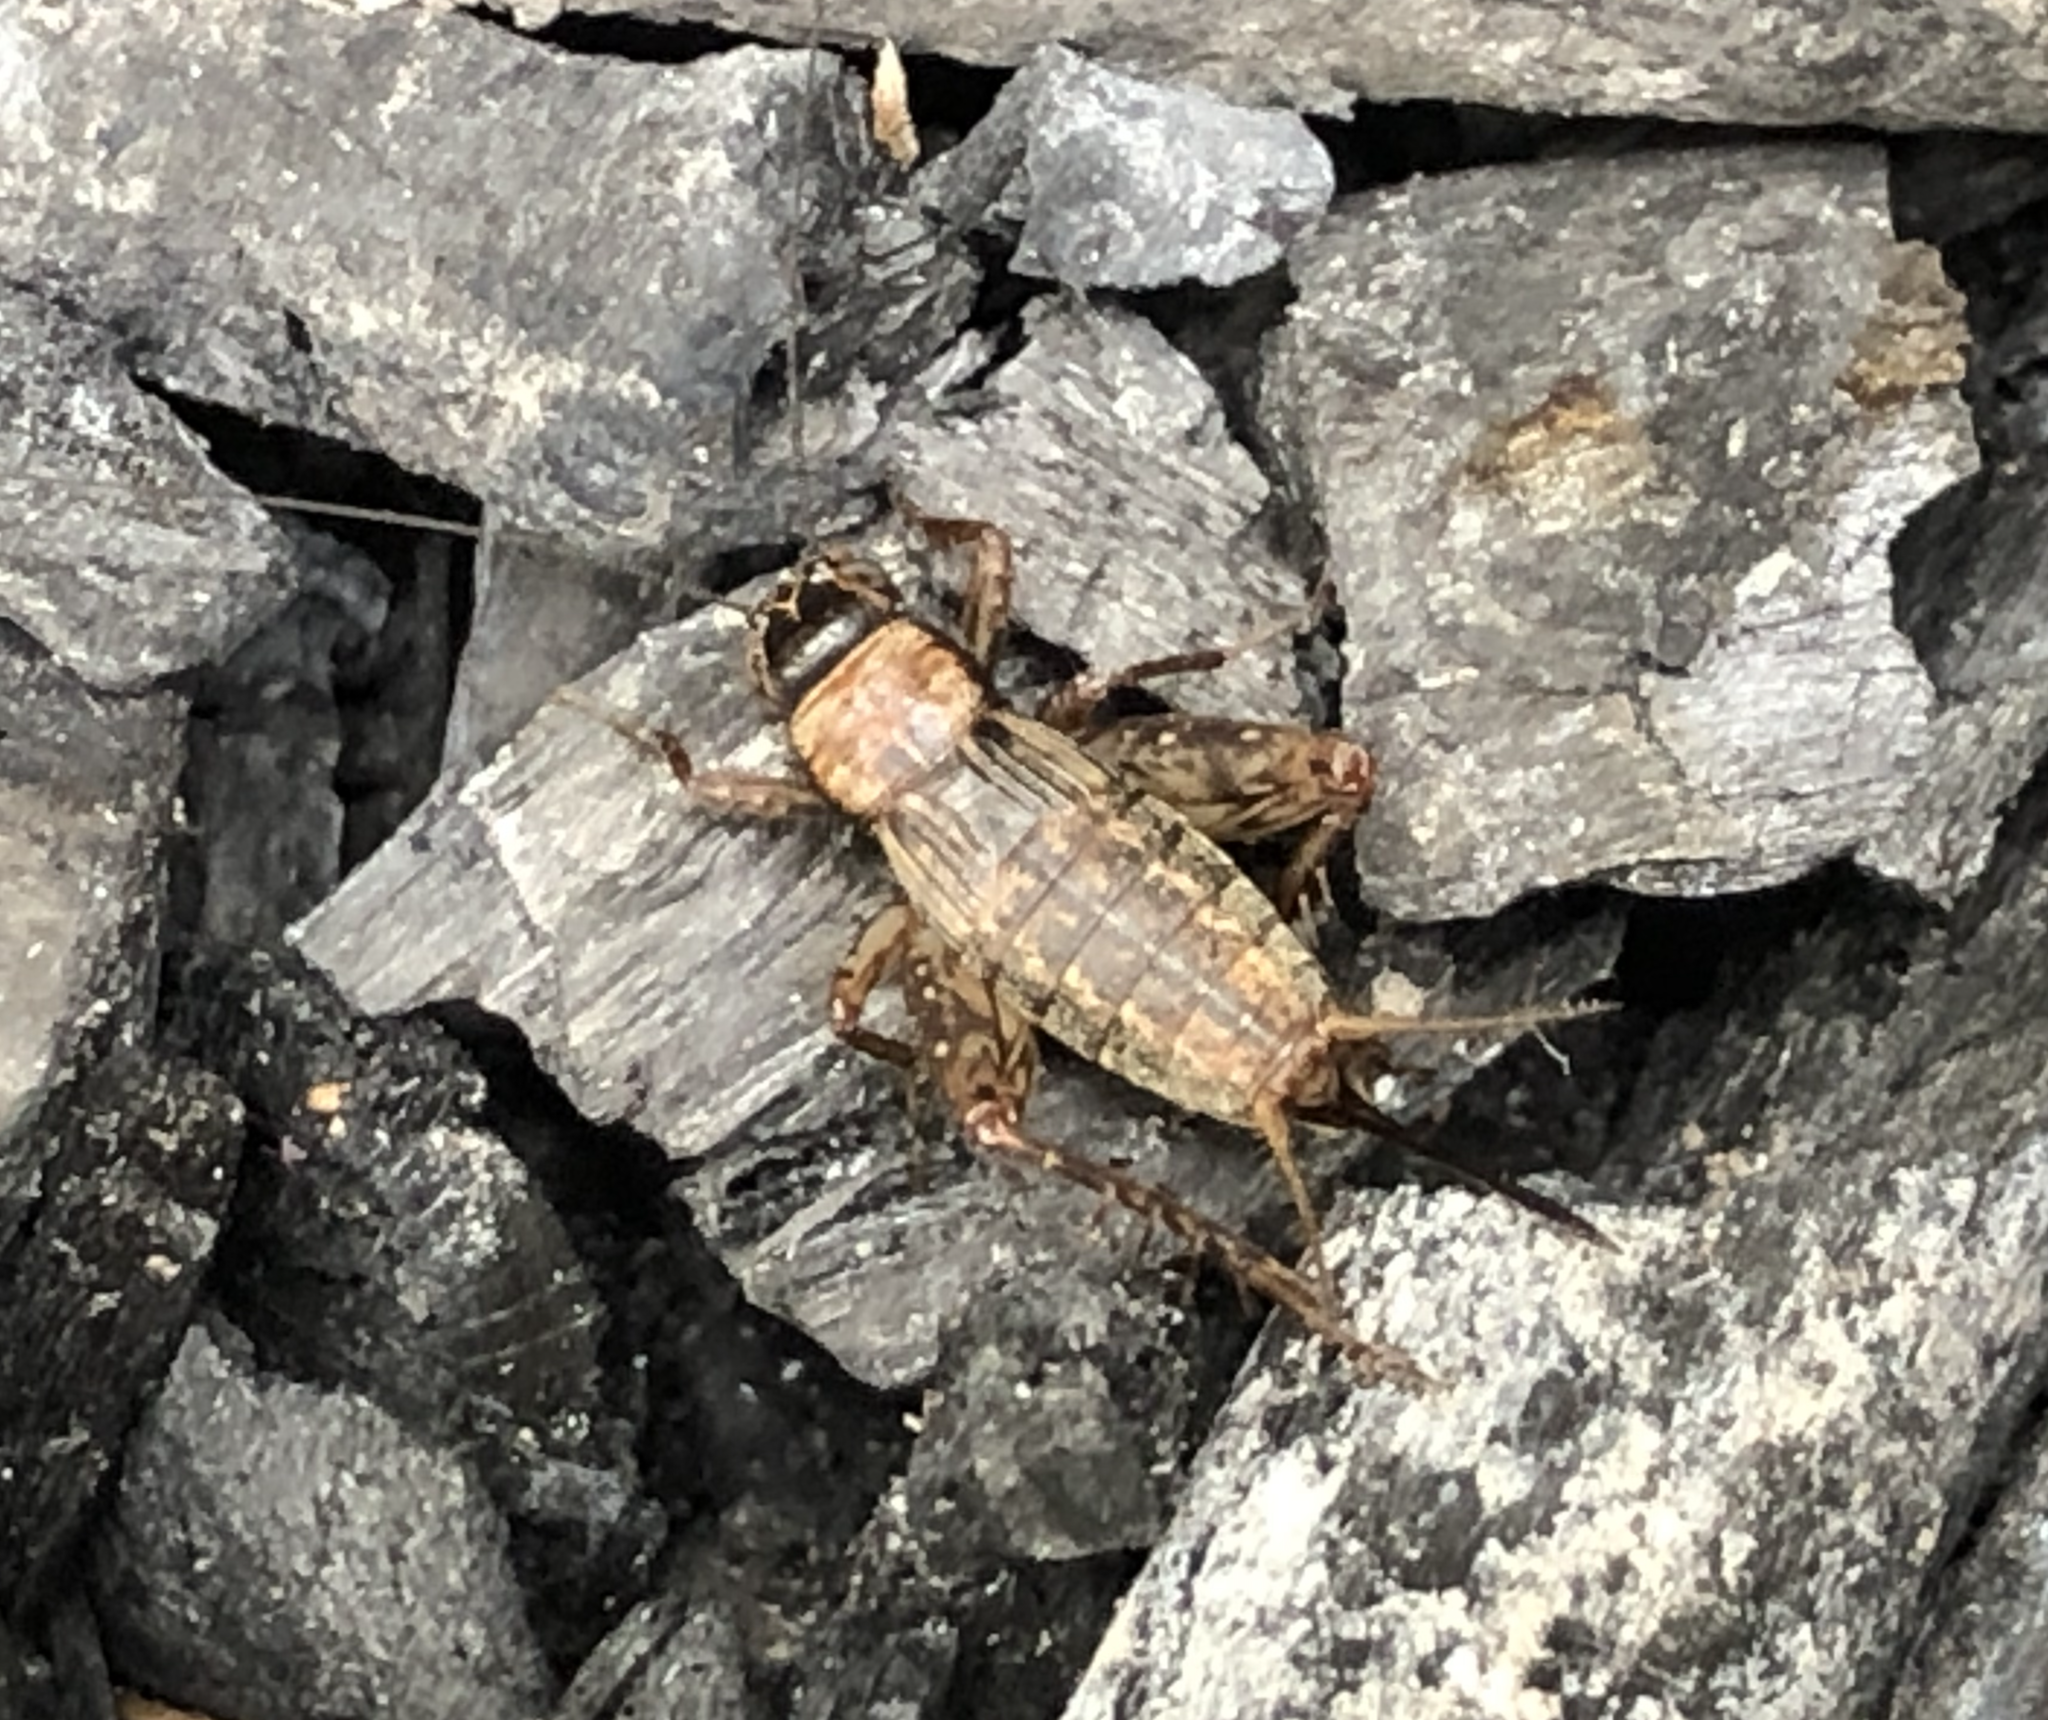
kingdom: Animalia
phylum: Arthropoda
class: Insecta
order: Orthoptera
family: Trigonidiidae
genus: Nemobius
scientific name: Nemobius sylvestris
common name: Wood-cricket
